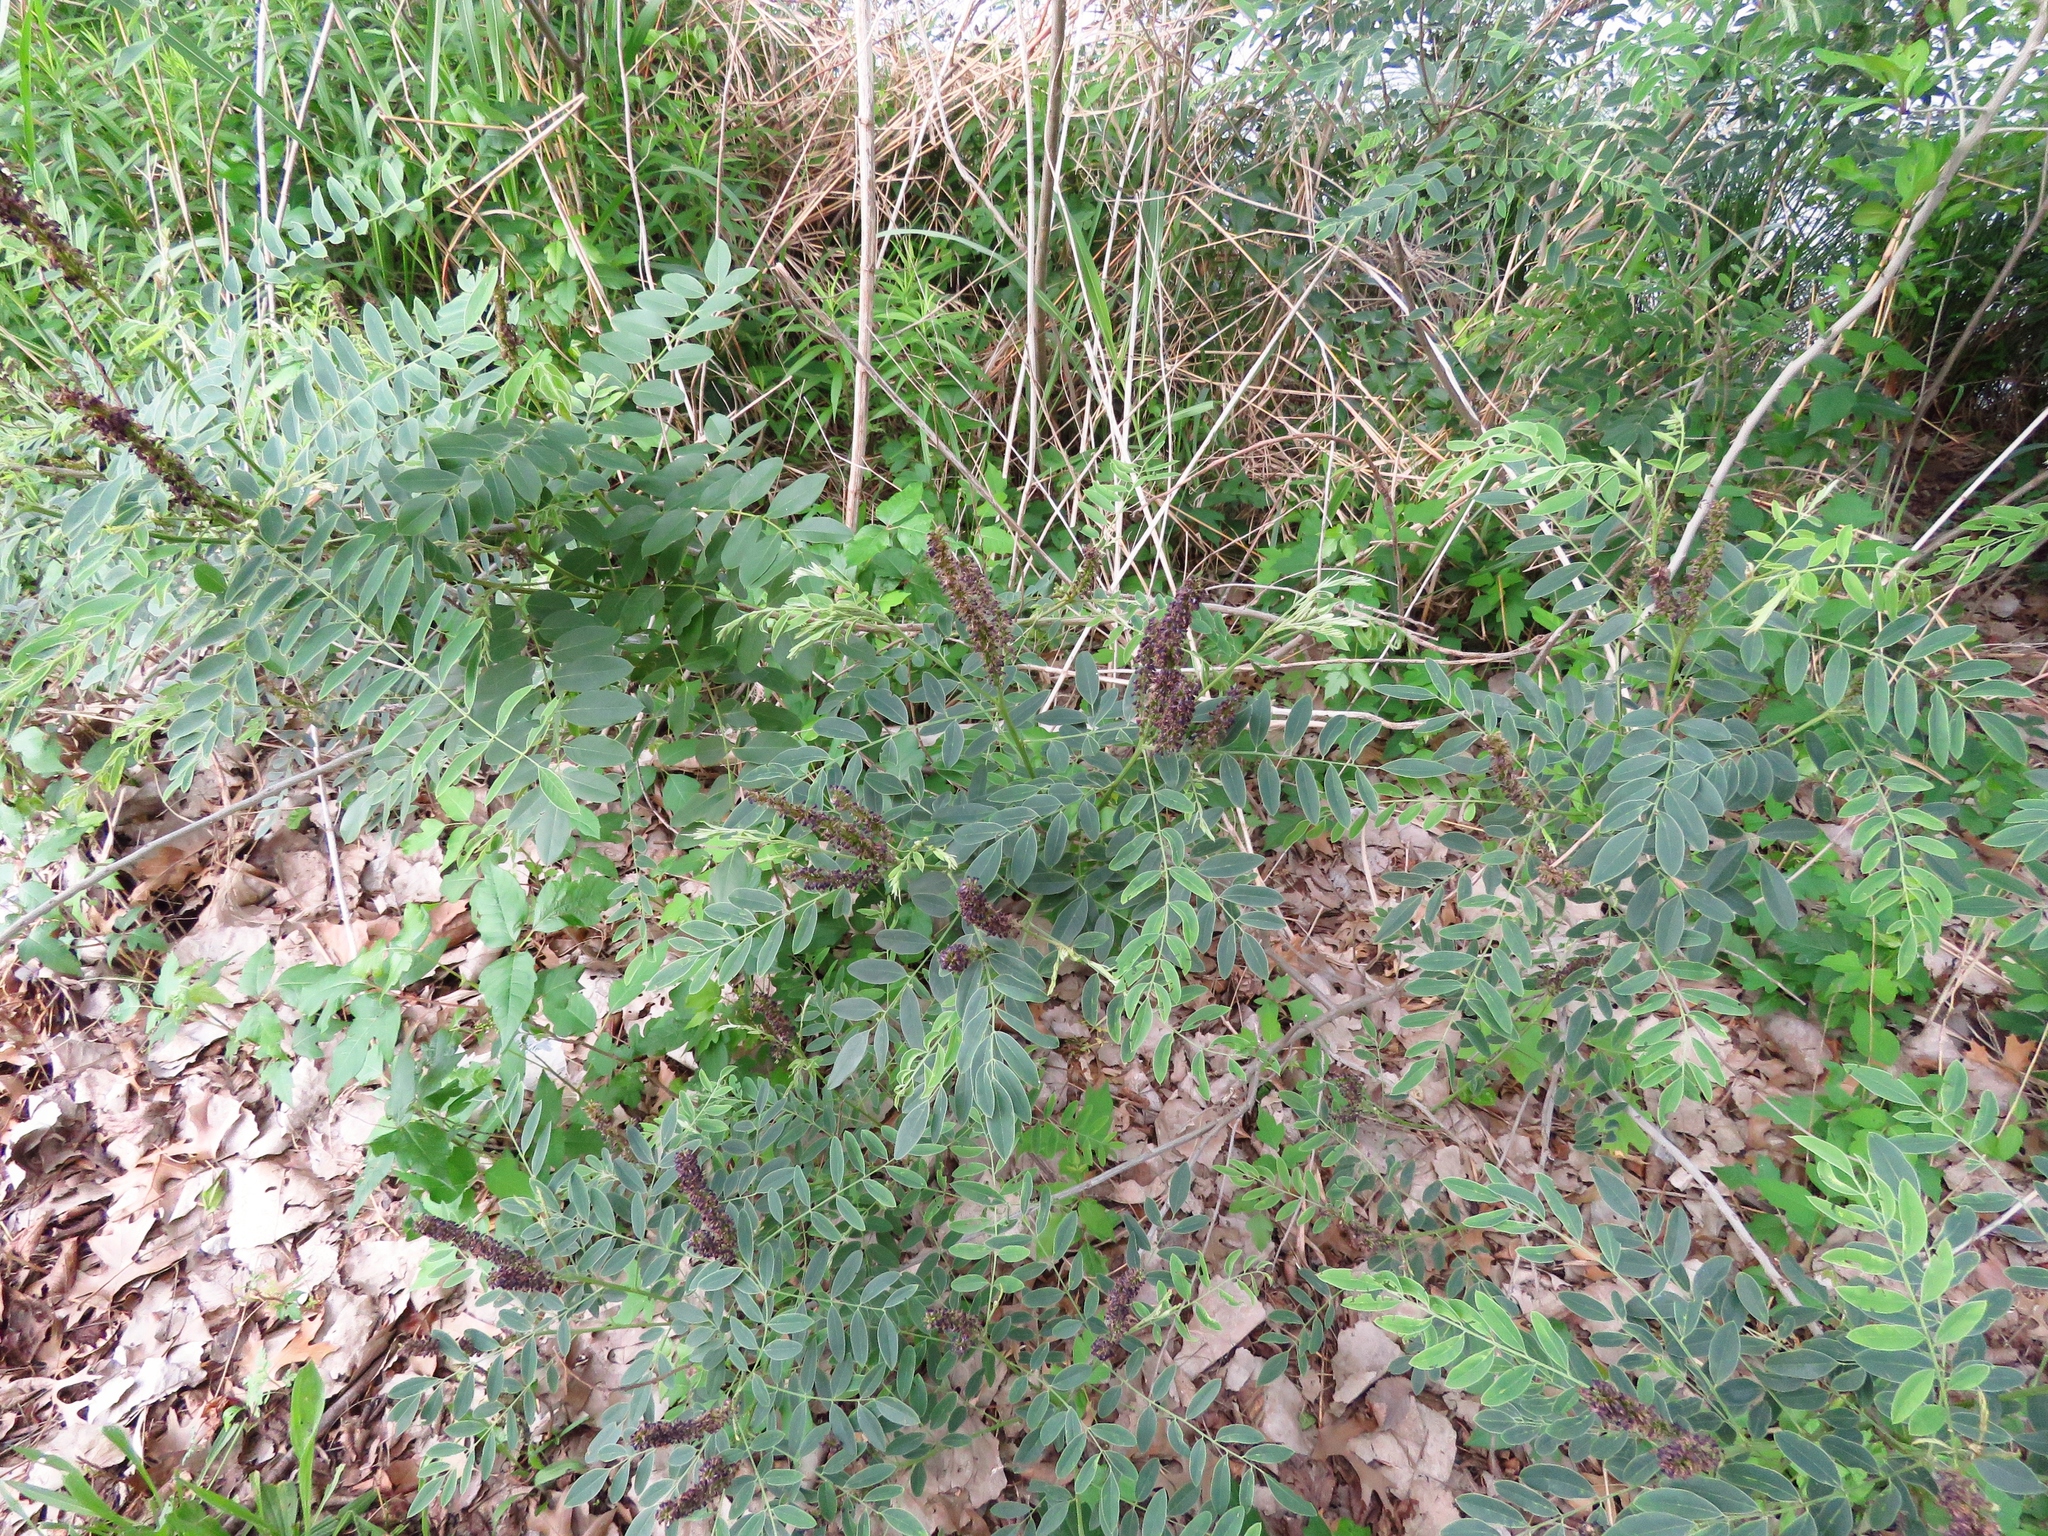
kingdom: Plantae
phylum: Tracheophyta
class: Magnoliopsida
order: Fabales
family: Fabaceae
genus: Amorpha
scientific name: Amorpha fruticosa
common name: False indigo
